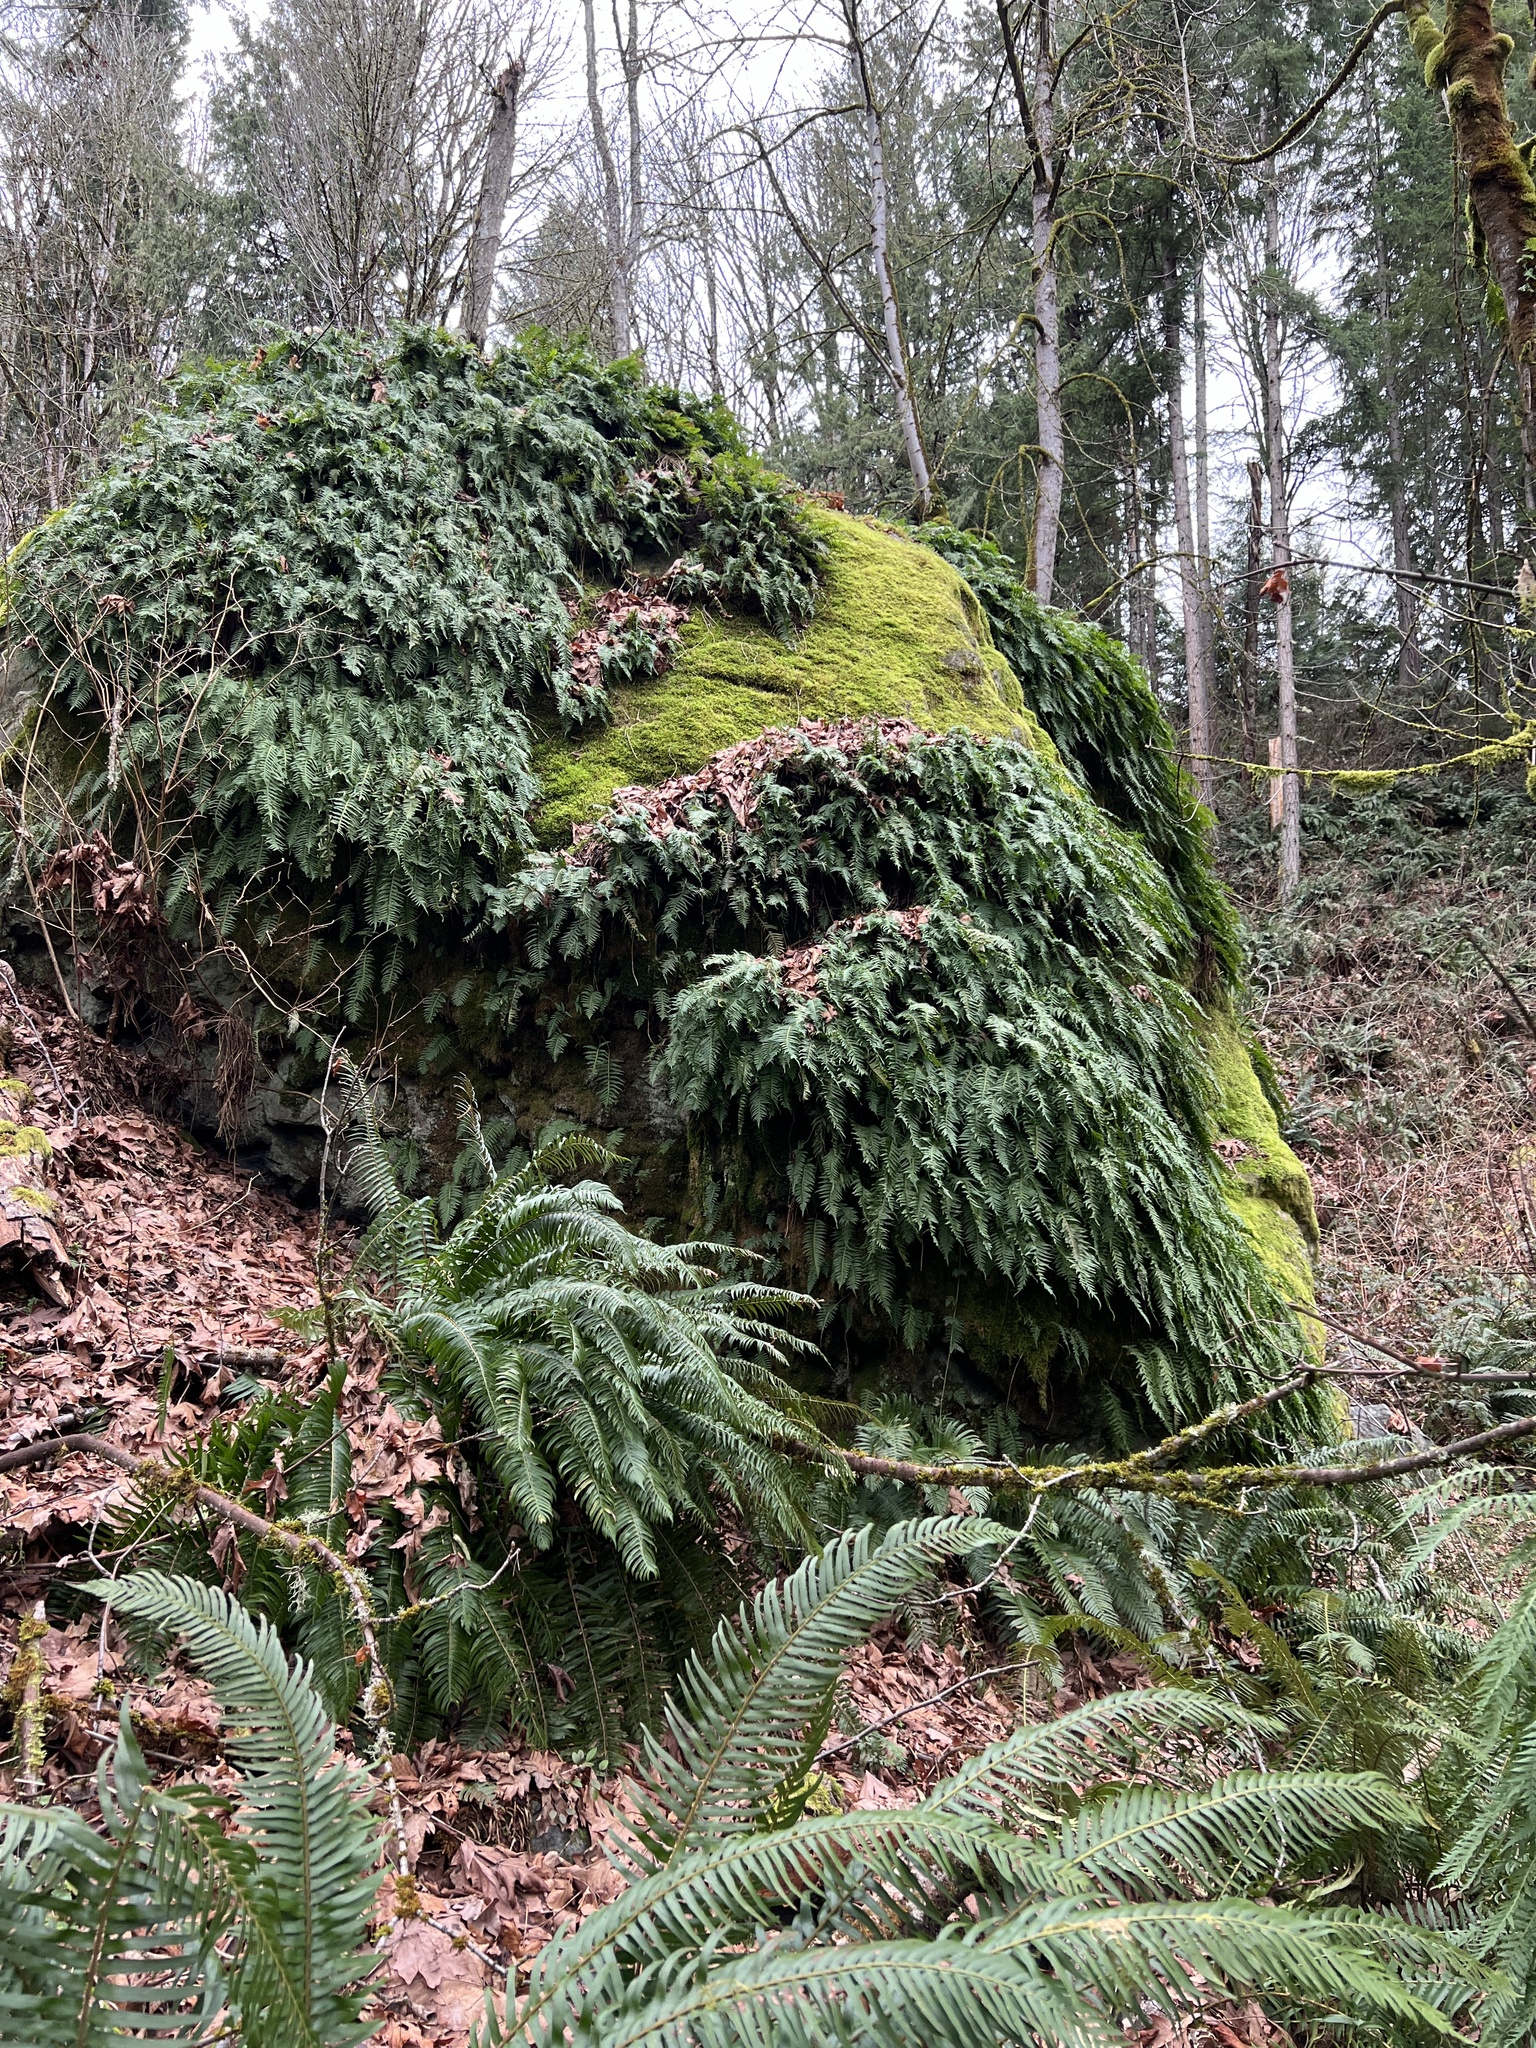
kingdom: Plantae
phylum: Tracheophyta
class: Polypodiopsida
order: Polypodiales
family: Polypodiaceae
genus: Polypodium
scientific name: Polypodium glycyrrhiza
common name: Licorice fern
